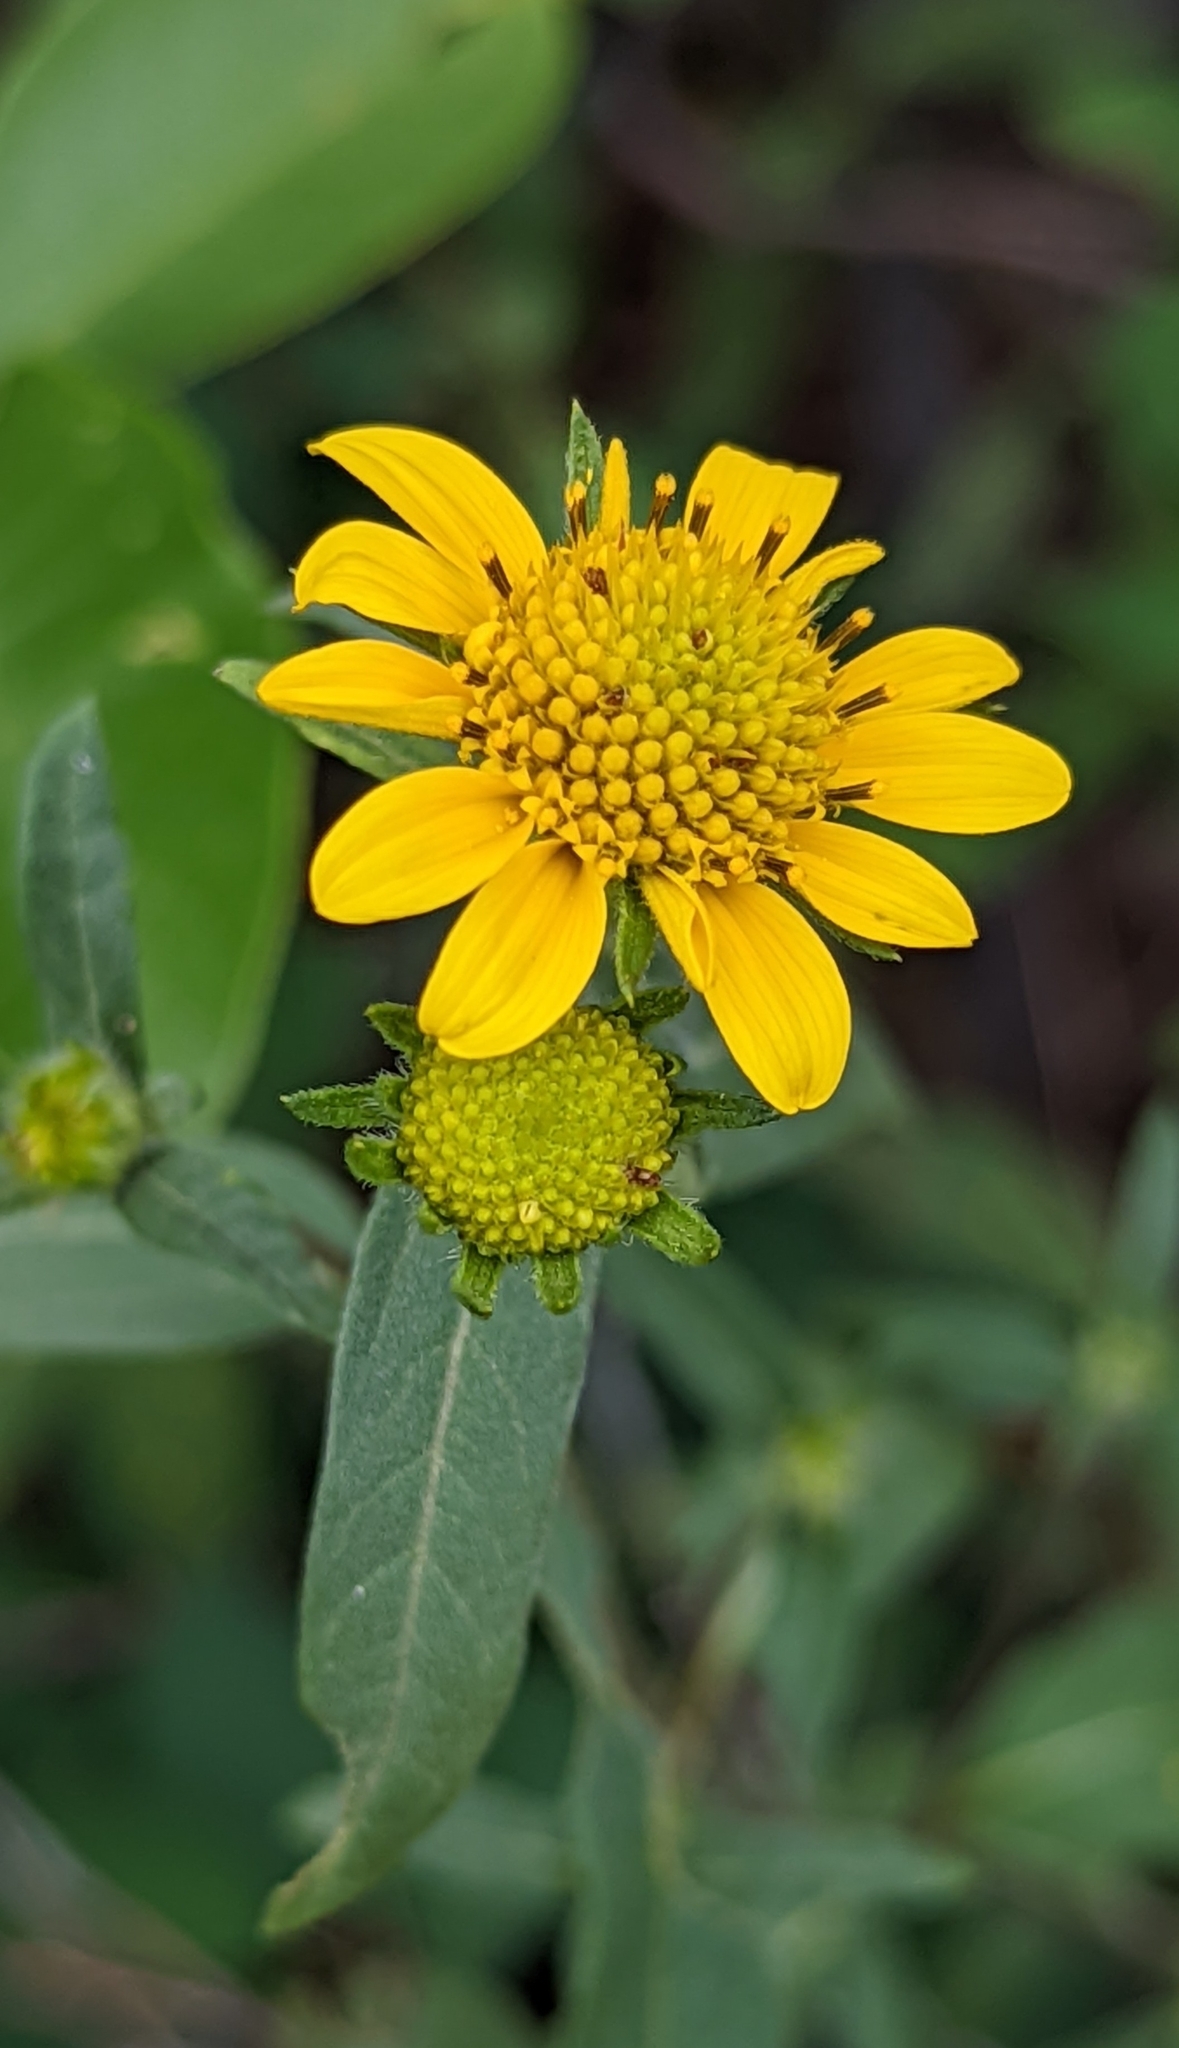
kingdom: Plantae
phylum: Tracheophyta
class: Magnoliopsida
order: Asterales
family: Asteraceae
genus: Heliomeris
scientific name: Heliomeris multiflora
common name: Showy goldeneye
